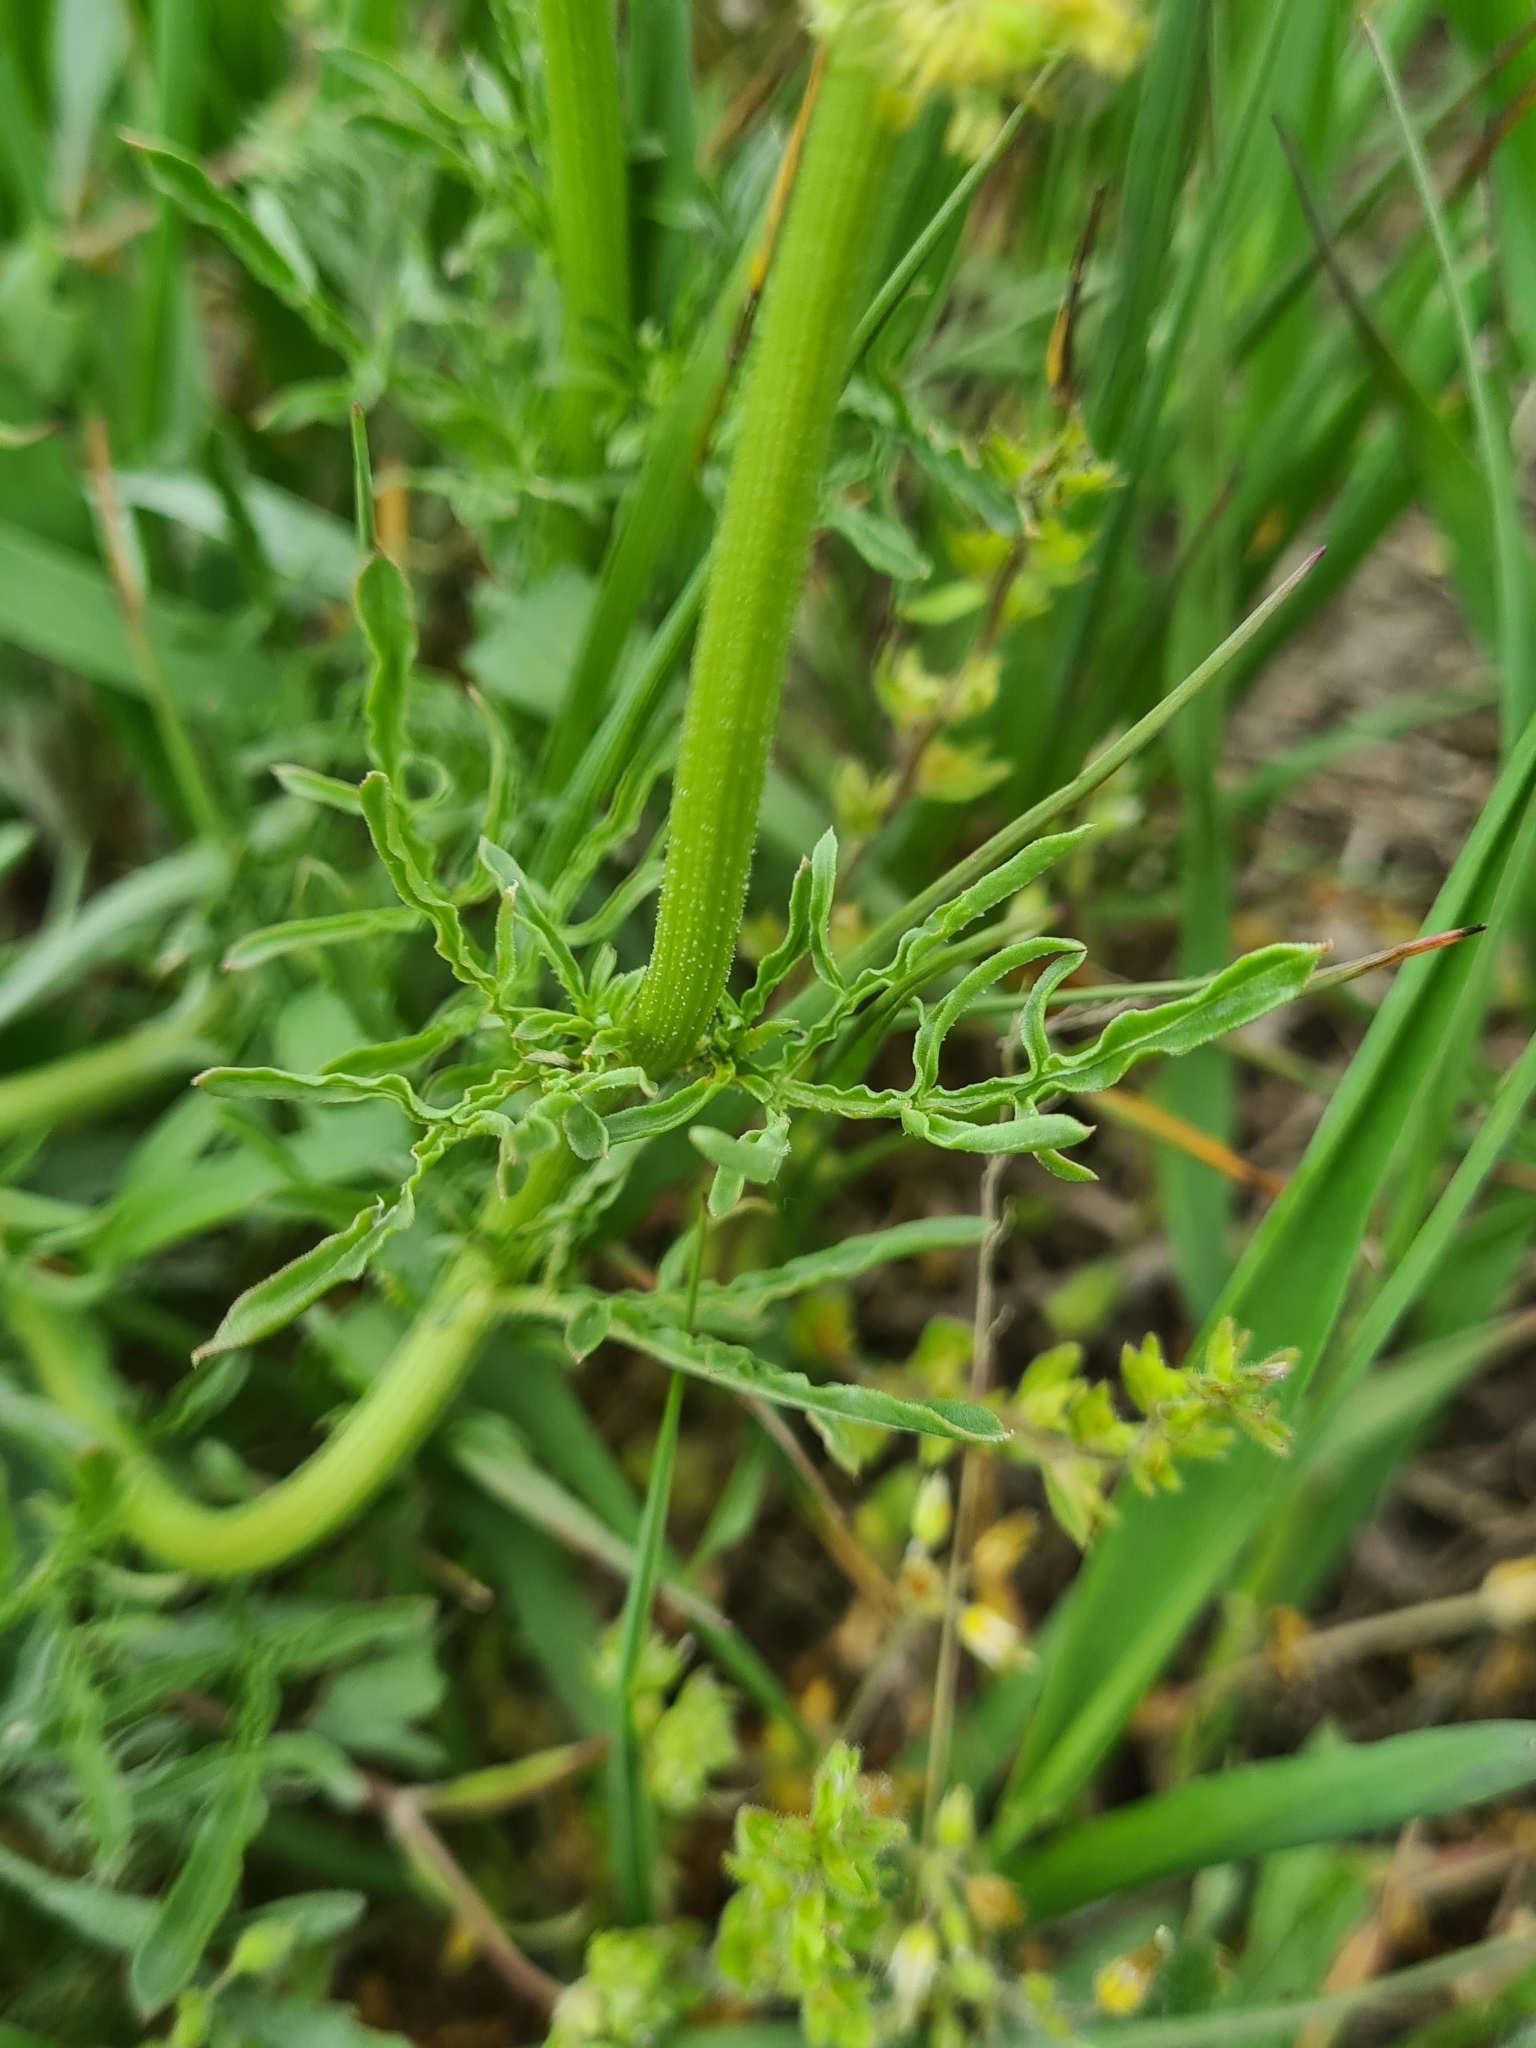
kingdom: Plantae
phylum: Tracheophyta
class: Magnoliopsida
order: Brassicales
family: Resedaceae
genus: Reseda
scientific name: Reseda lutea
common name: Wild mignonette
